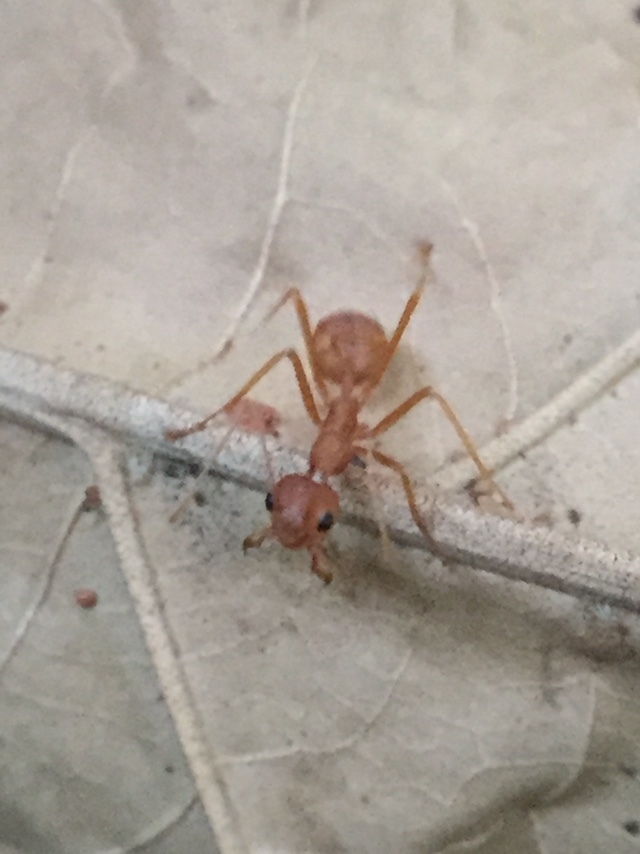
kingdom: Animalia
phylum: Arthropoda
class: Insecta
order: Hymenoptera
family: Formicidae
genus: Oecophylla
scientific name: Oecophylla smaragdina
